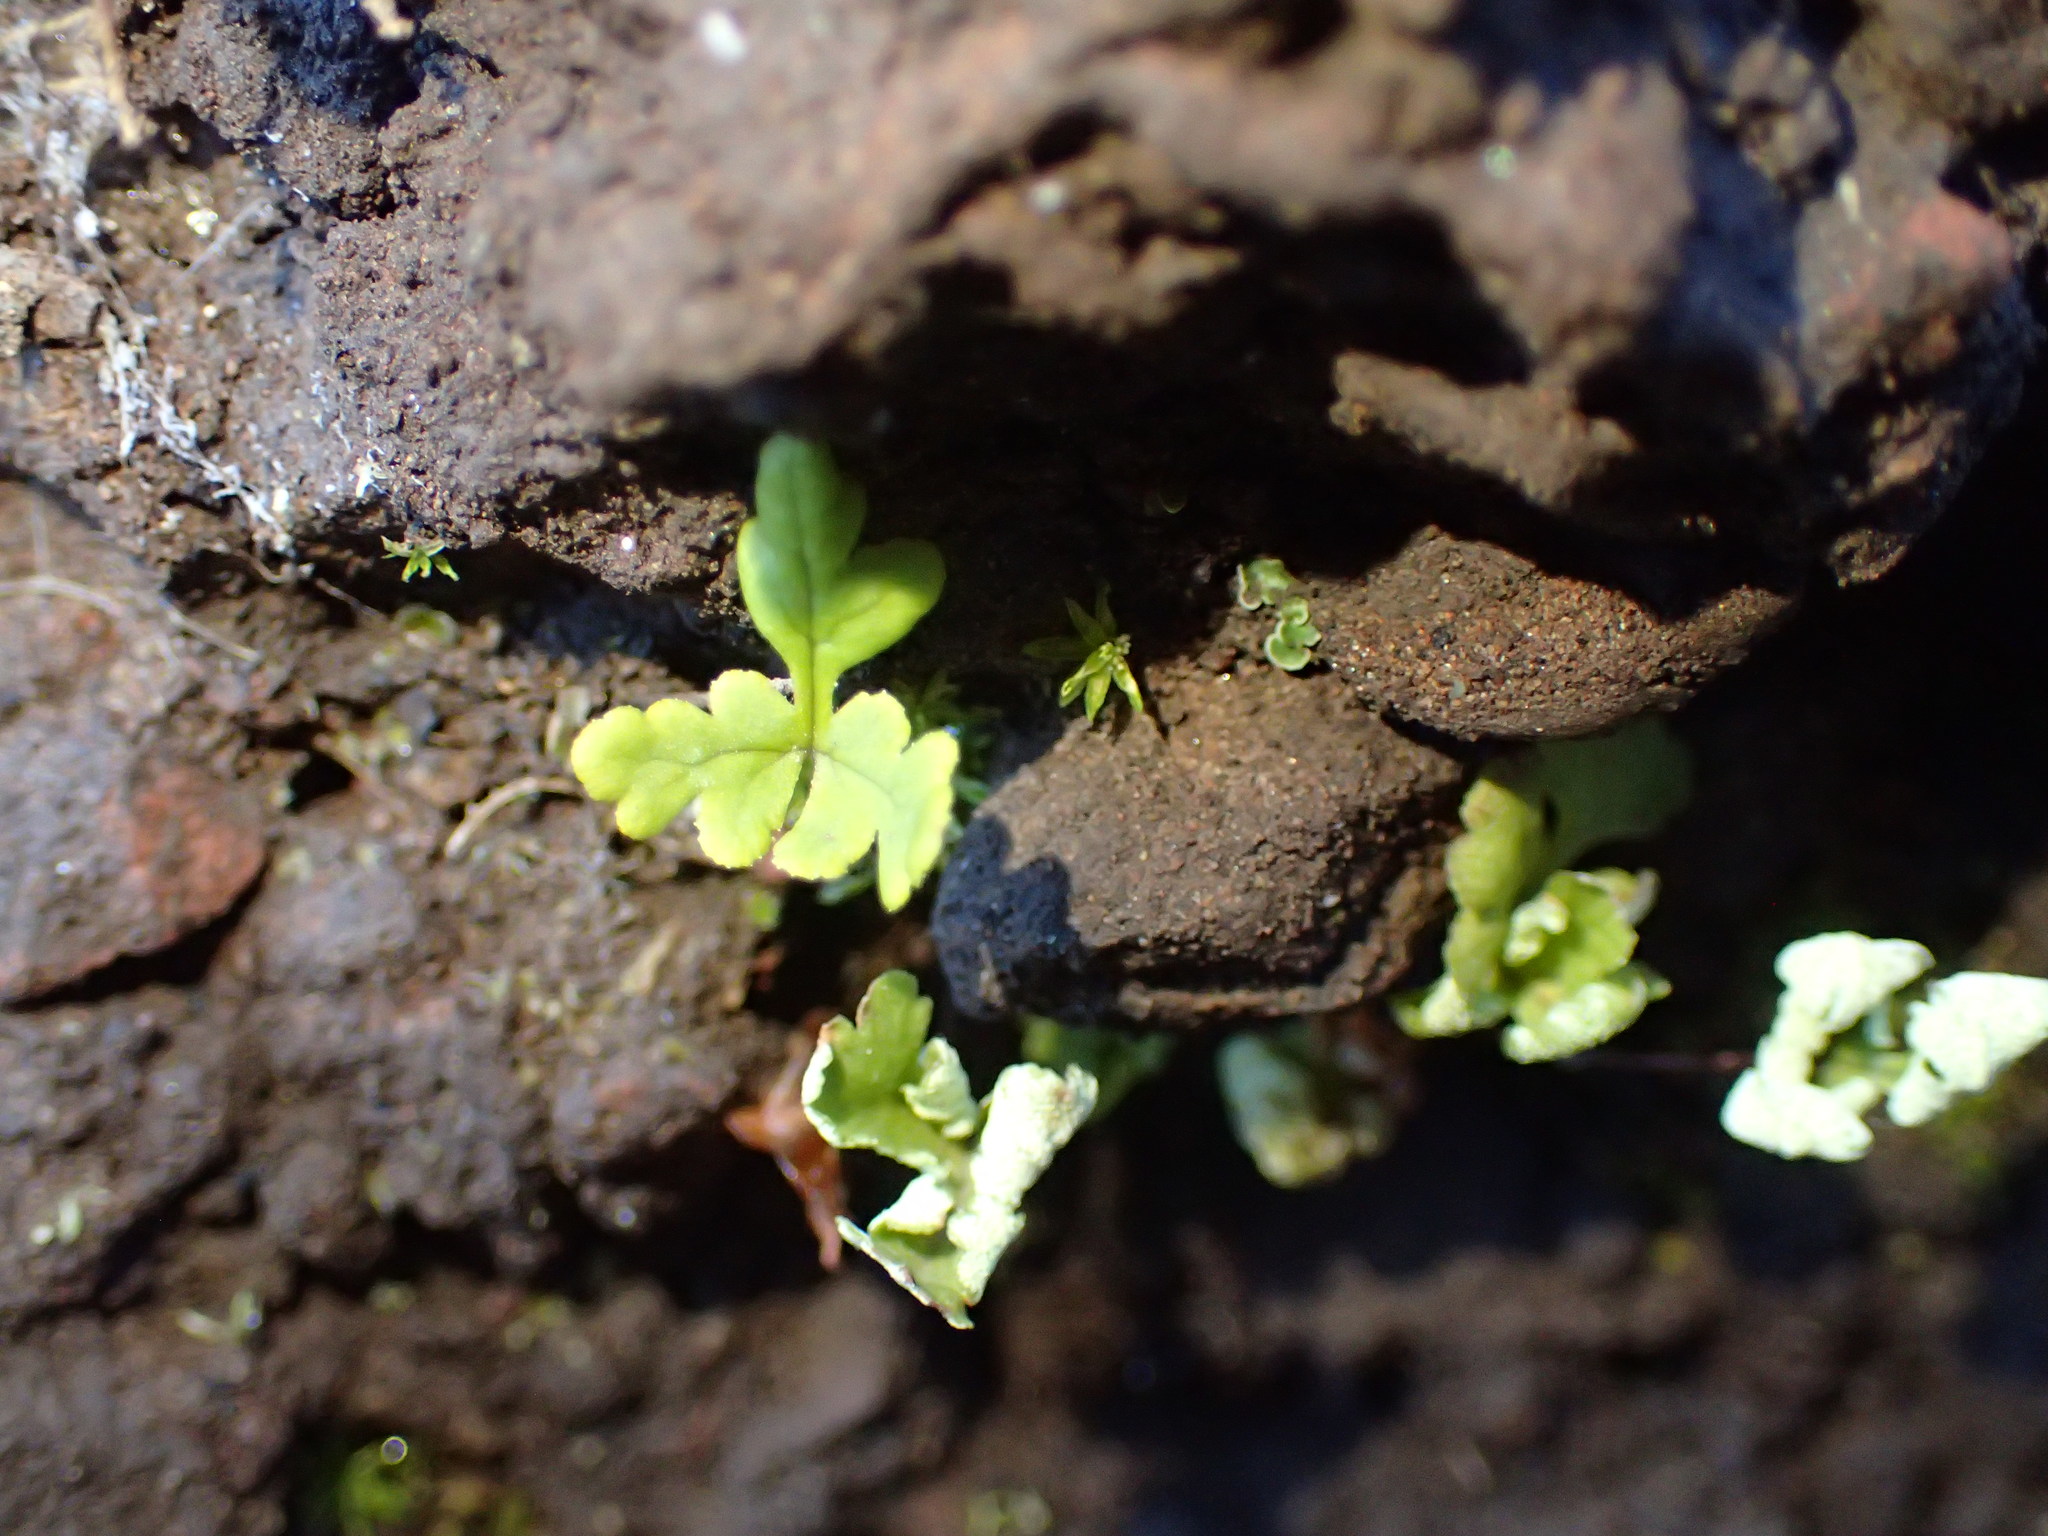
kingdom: Plantae
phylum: Tracheophyta
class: Polypodiopsida
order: Polypodiales
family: Pteridaceae
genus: Pentagramma
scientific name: Pentagramma triangularis
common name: Gold fern
